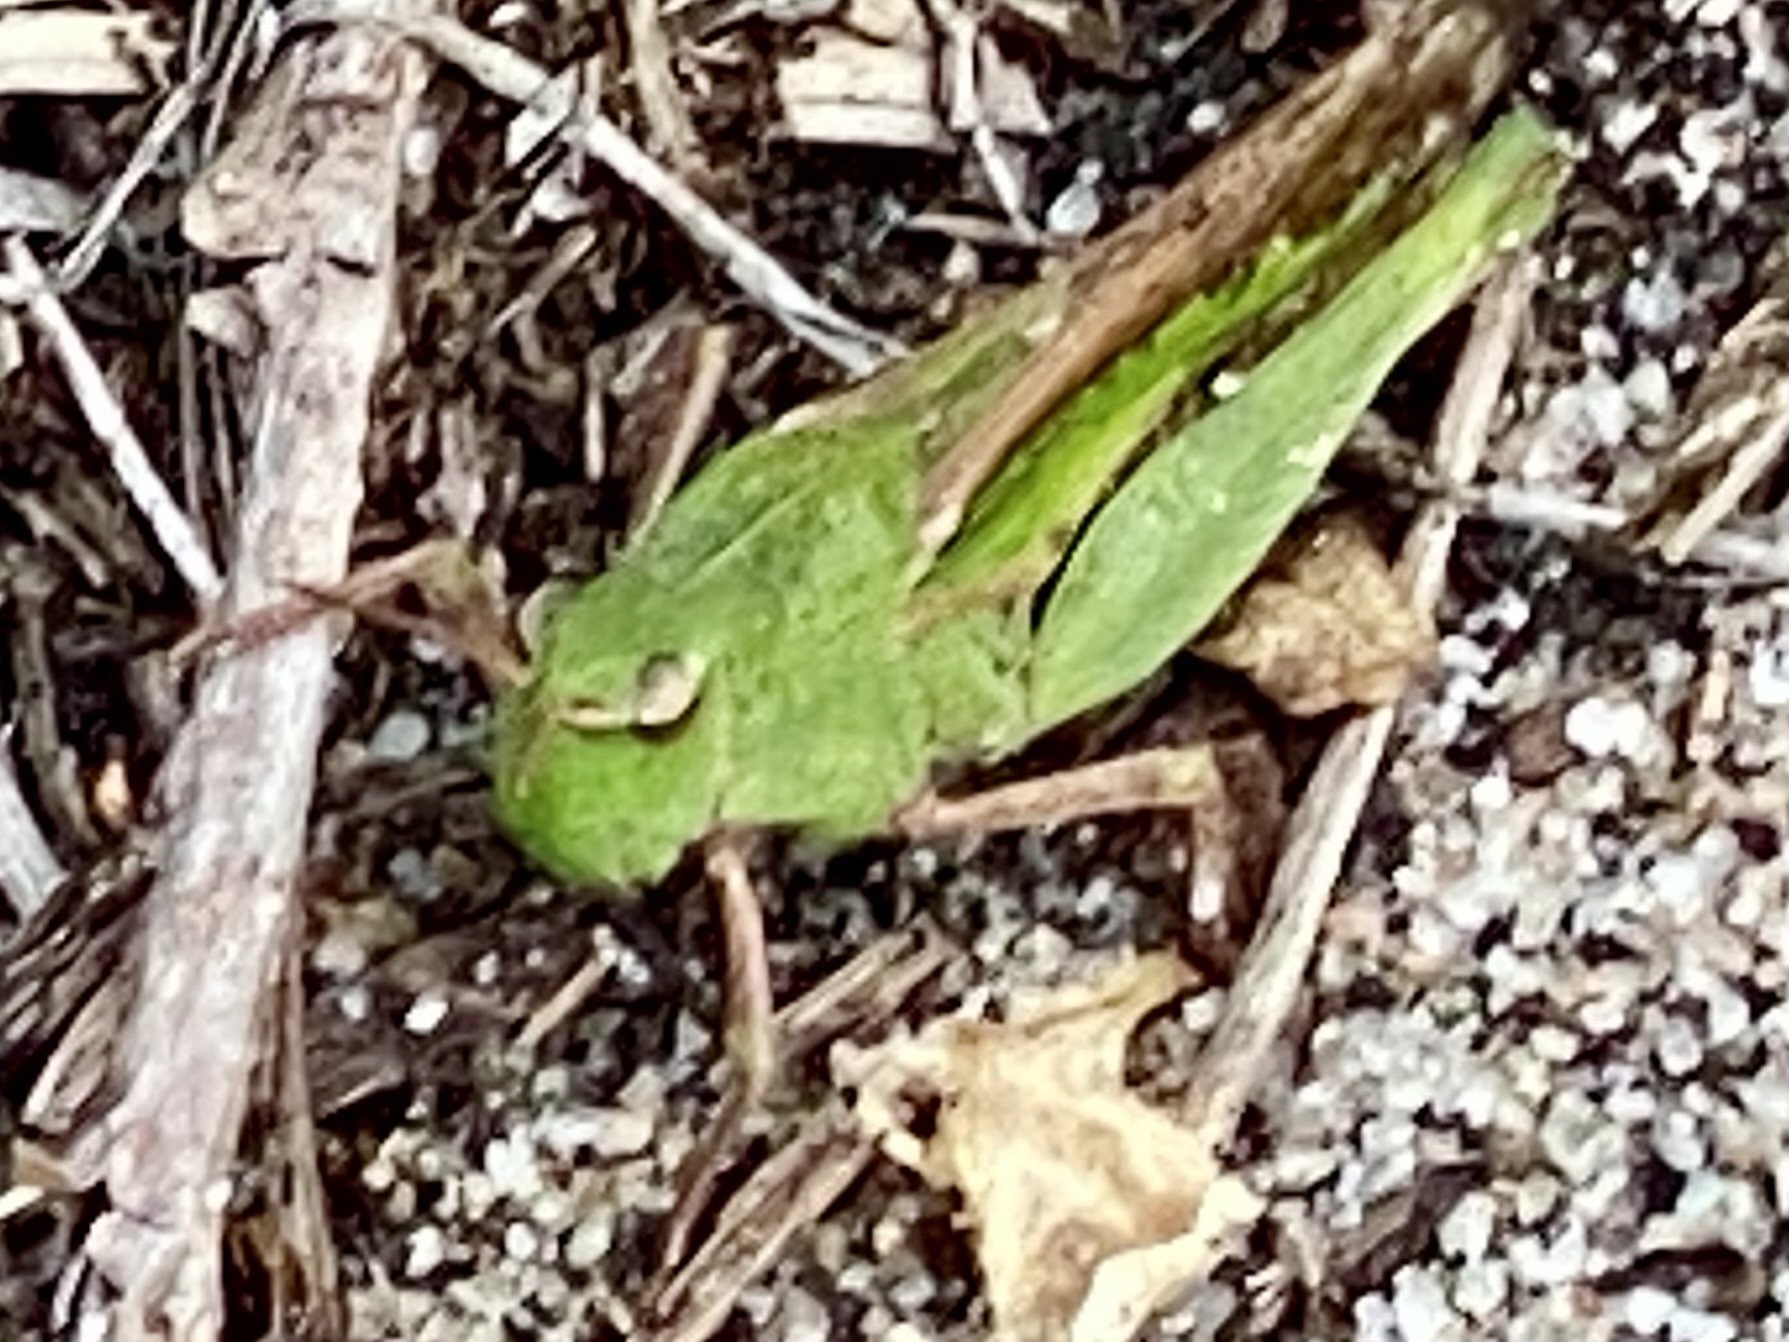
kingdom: Animalia
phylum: Arthropoda
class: Insecta
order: Orthoptera
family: Acrididae
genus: Chortophaga
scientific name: Chortophaga viridifasciata
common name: Green-striped grasshopper
